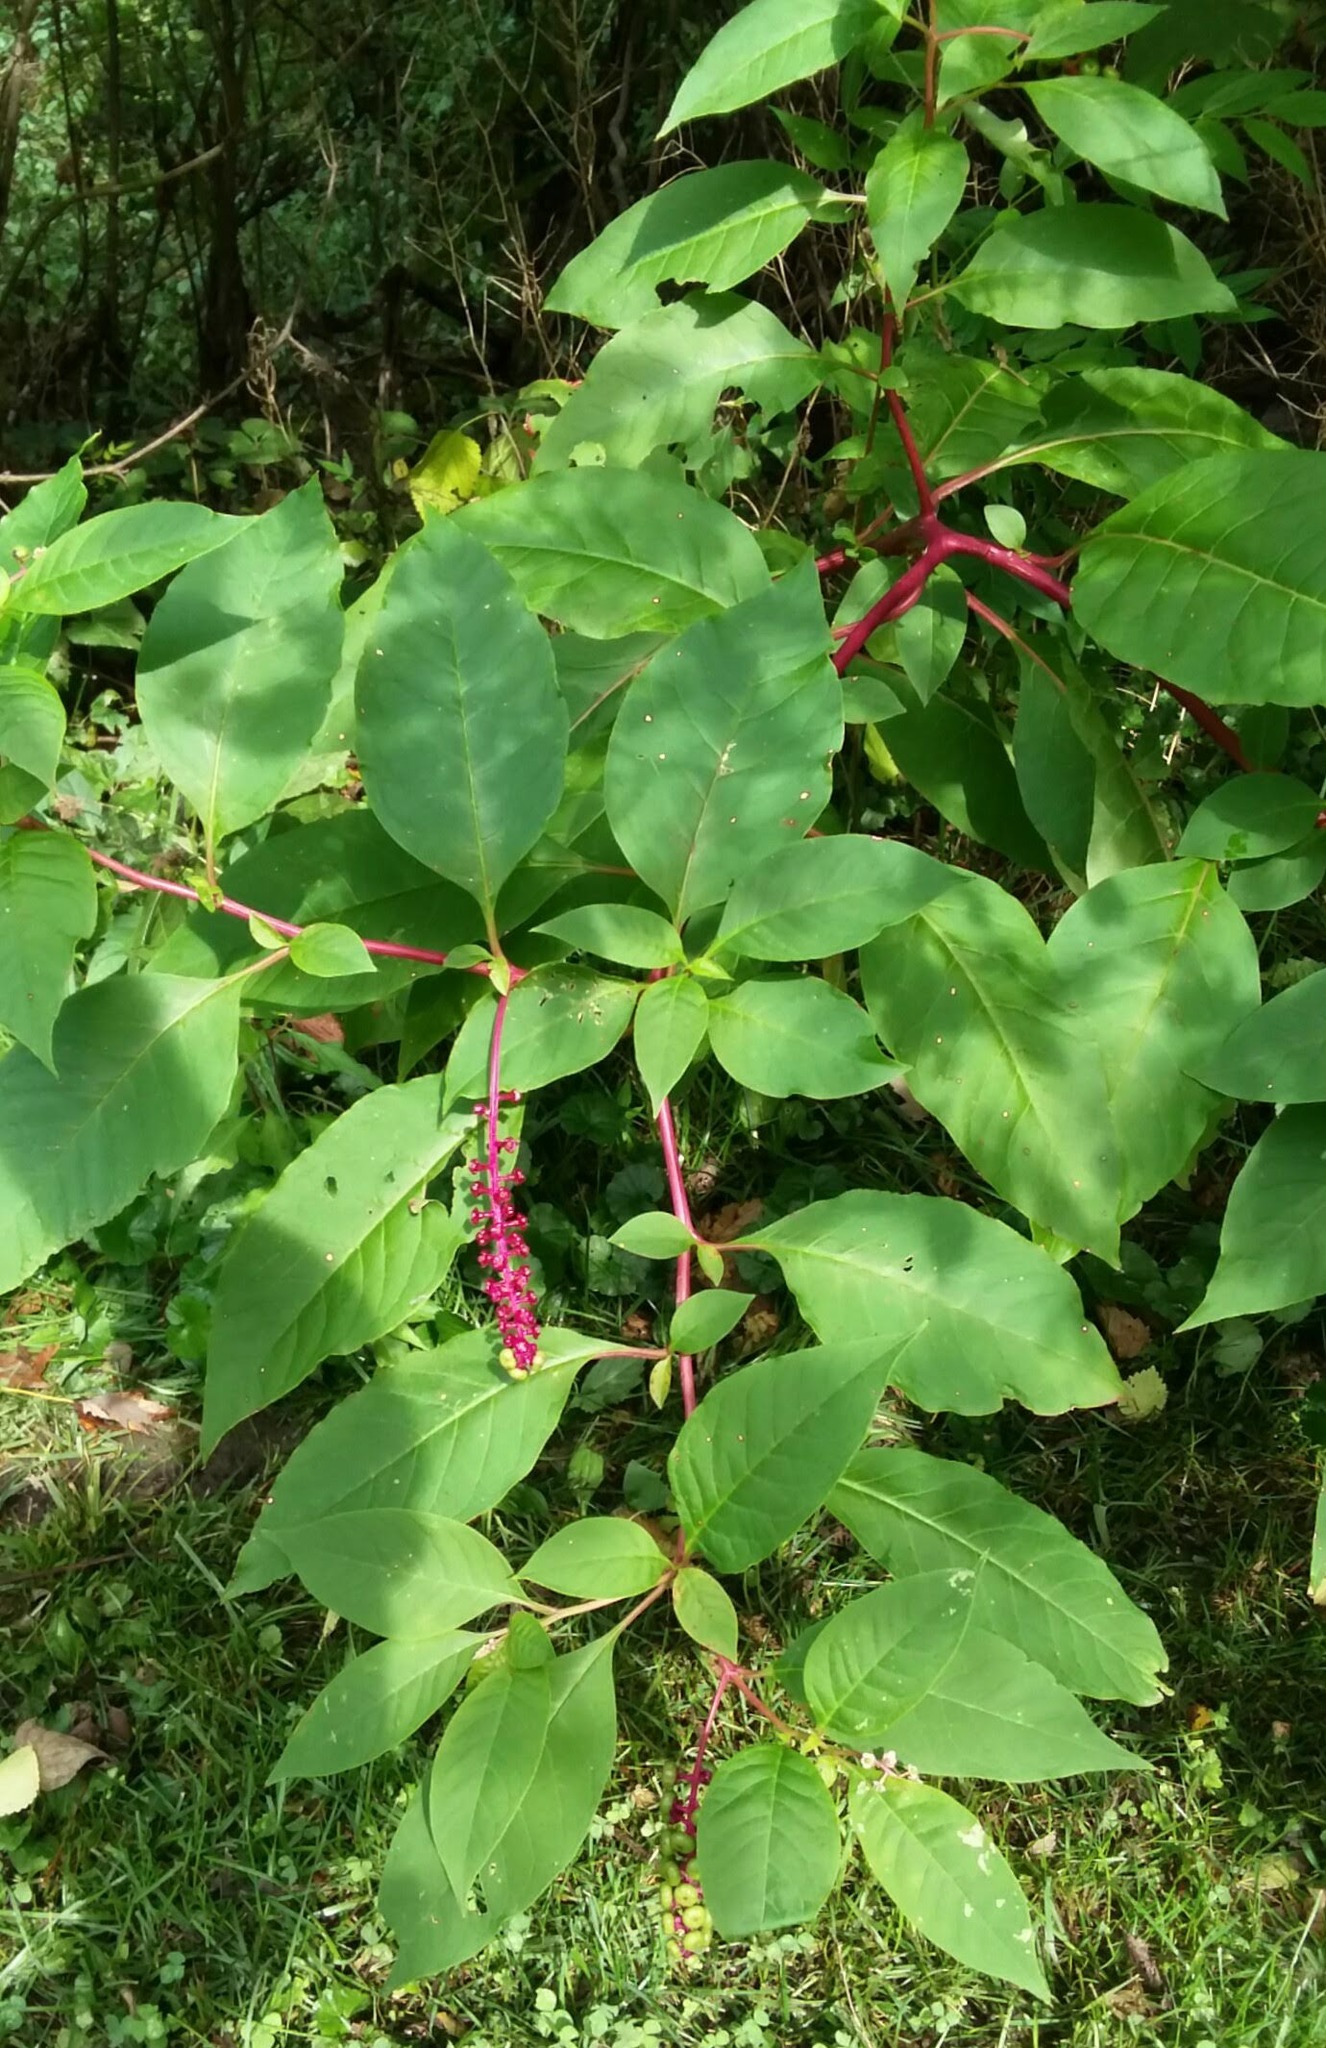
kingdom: Plantae
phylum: Tracheophyta
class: Magnoliopsida
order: Caryophyllales
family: Phytolaccaceae
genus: Phytolacca
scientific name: Phytolacca americana
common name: American pokeweed
